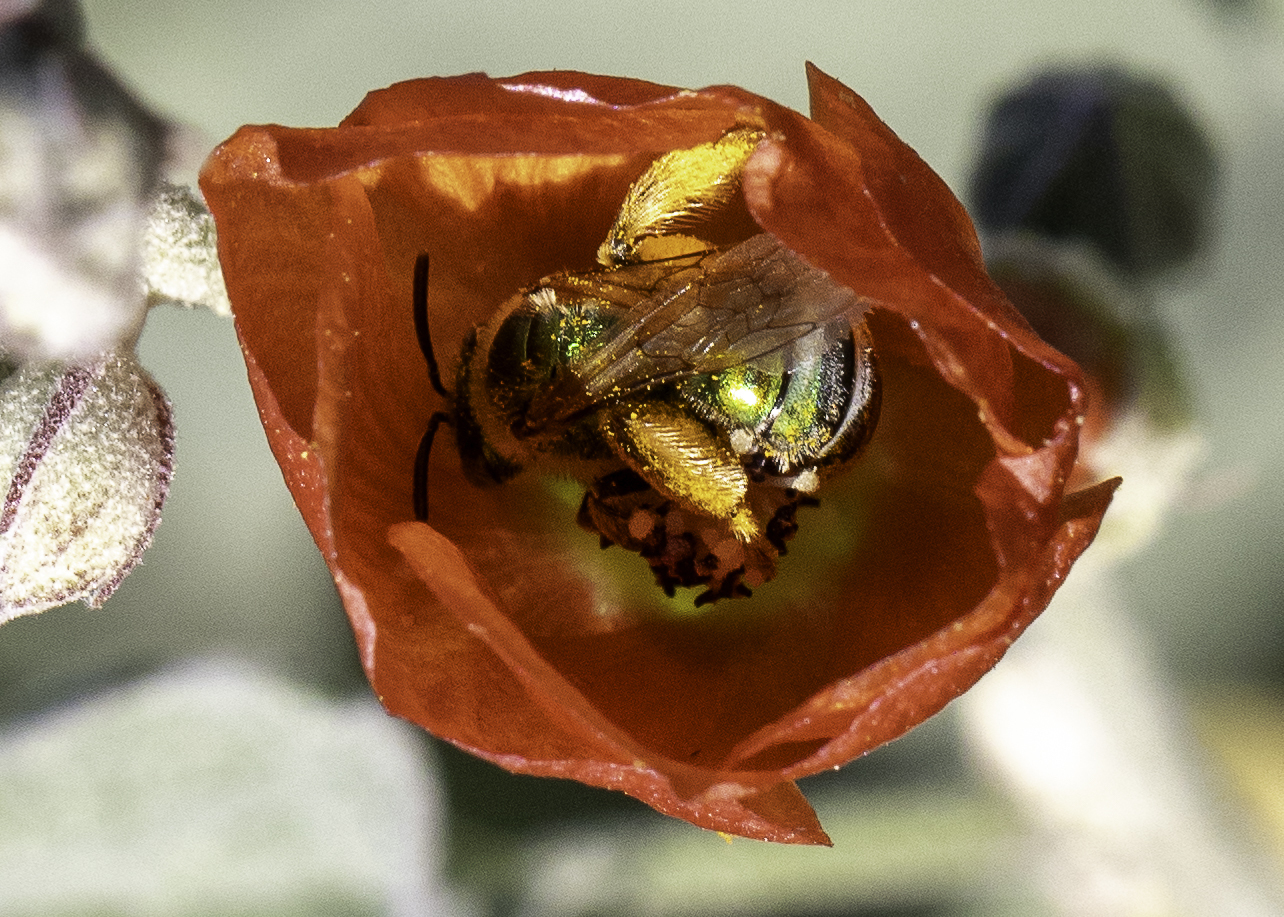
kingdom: Animalia
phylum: Arthropoda
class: Insecta
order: Hymenoptera
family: Halictidae
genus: Agapostemon
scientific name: Agapostemon texanus
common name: Texas striped sweat bee
